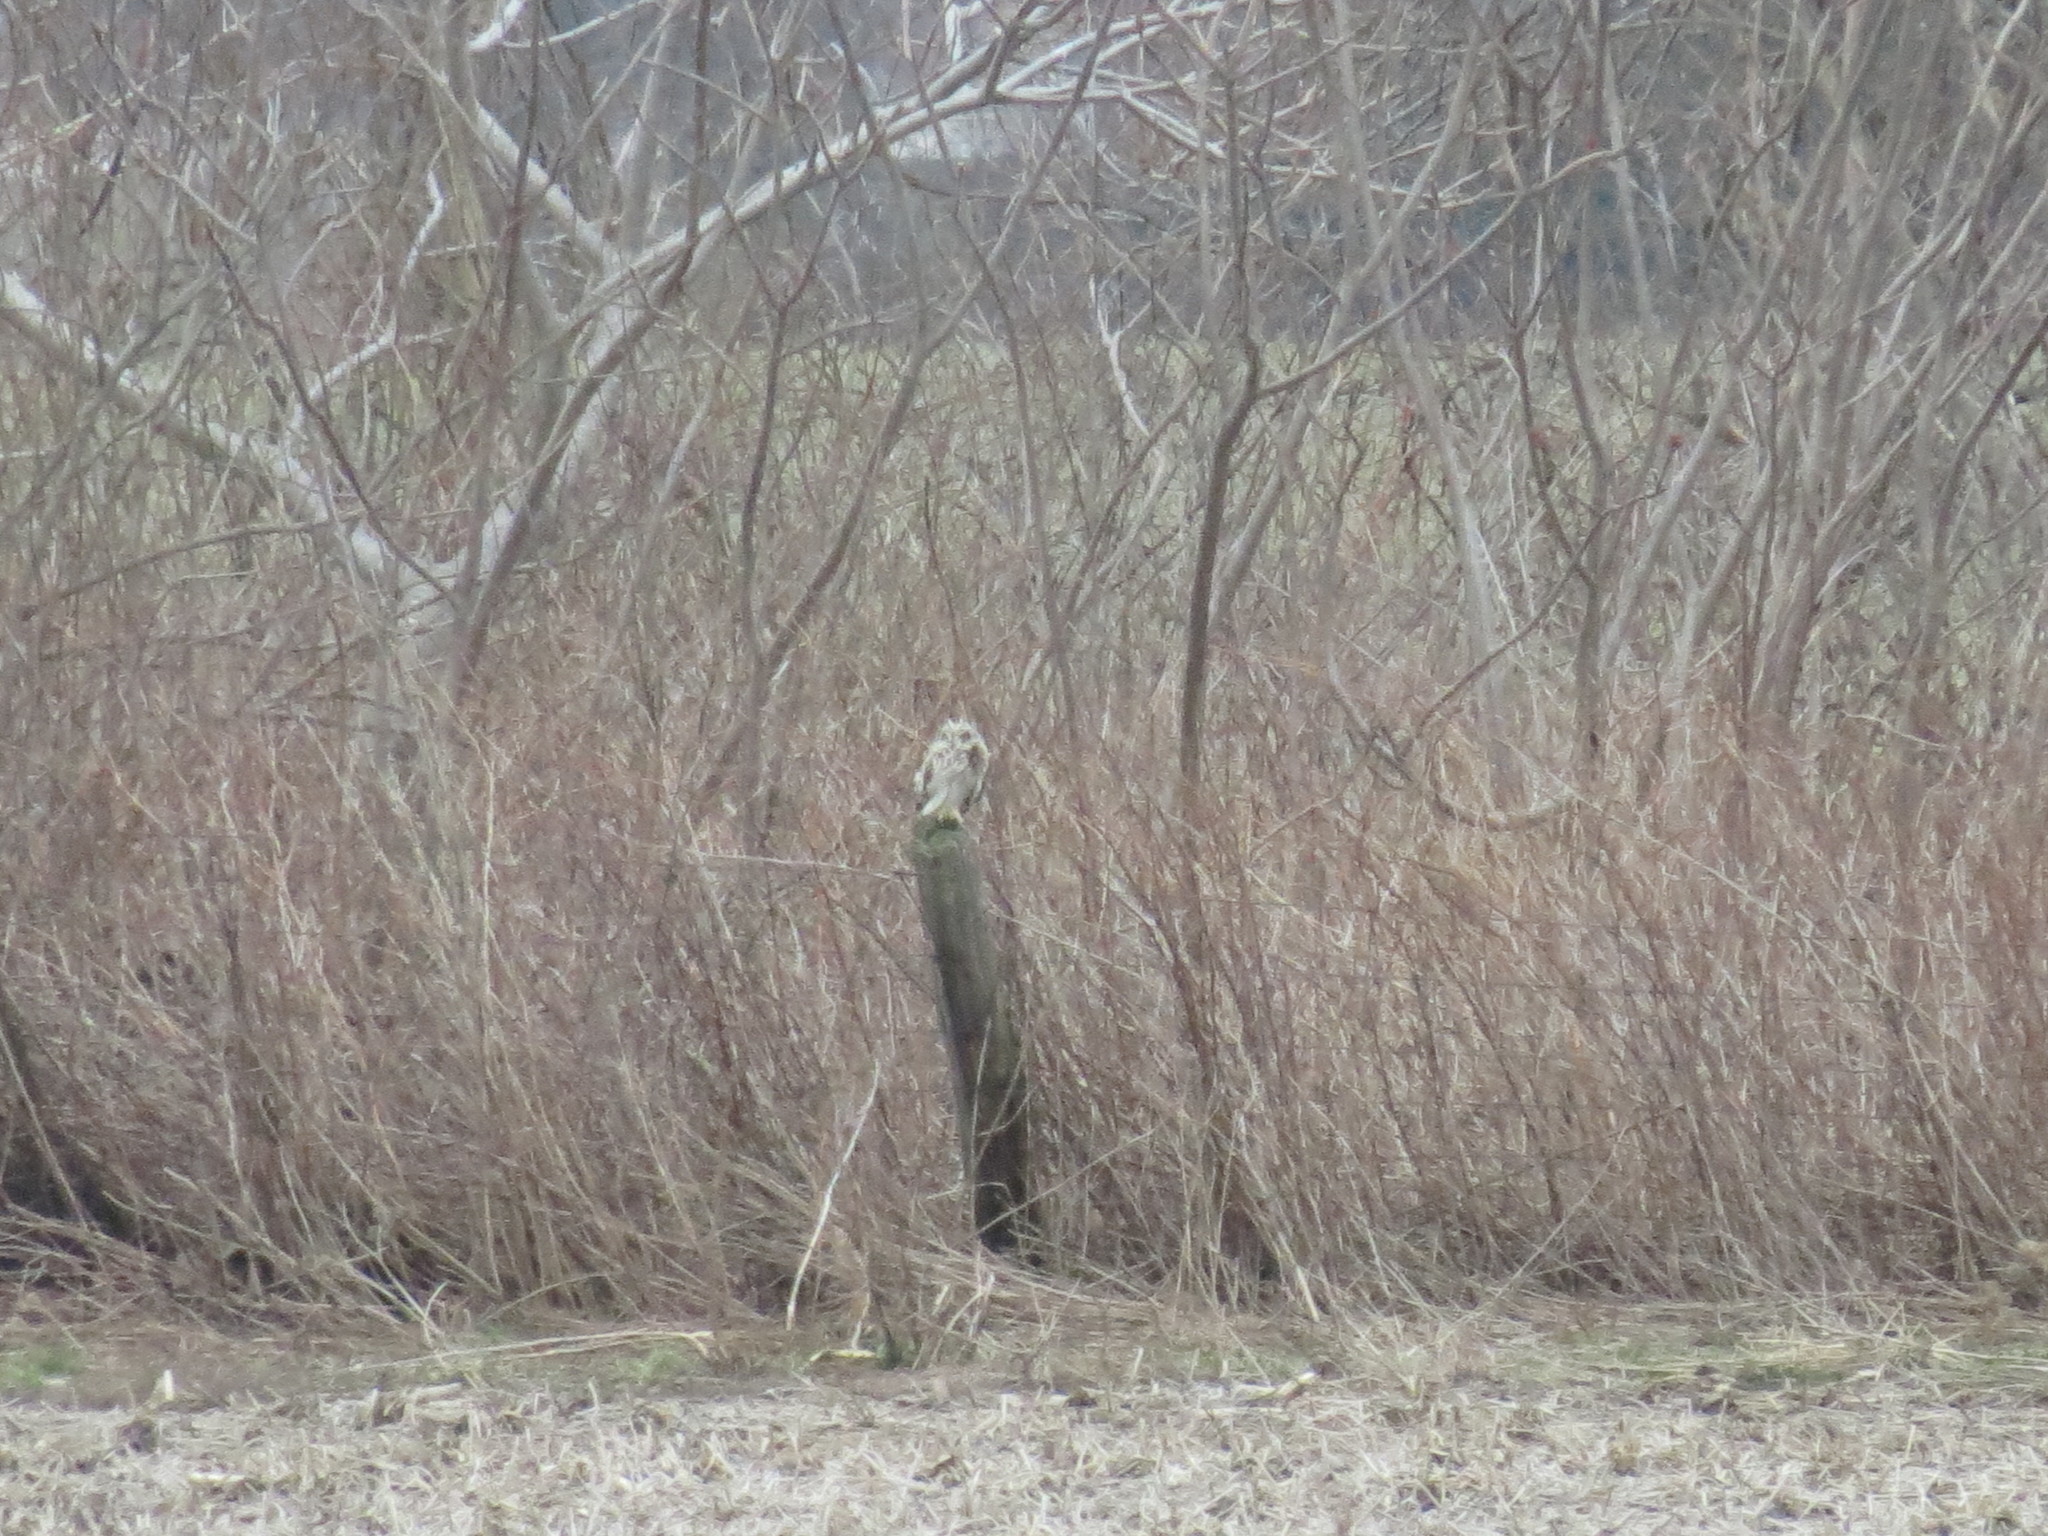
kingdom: Animalia
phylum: Chordata
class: Aves
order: Strigiformes
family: Strigidae
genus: Asio
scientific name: Asio flammeus
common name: Short-eared owl
